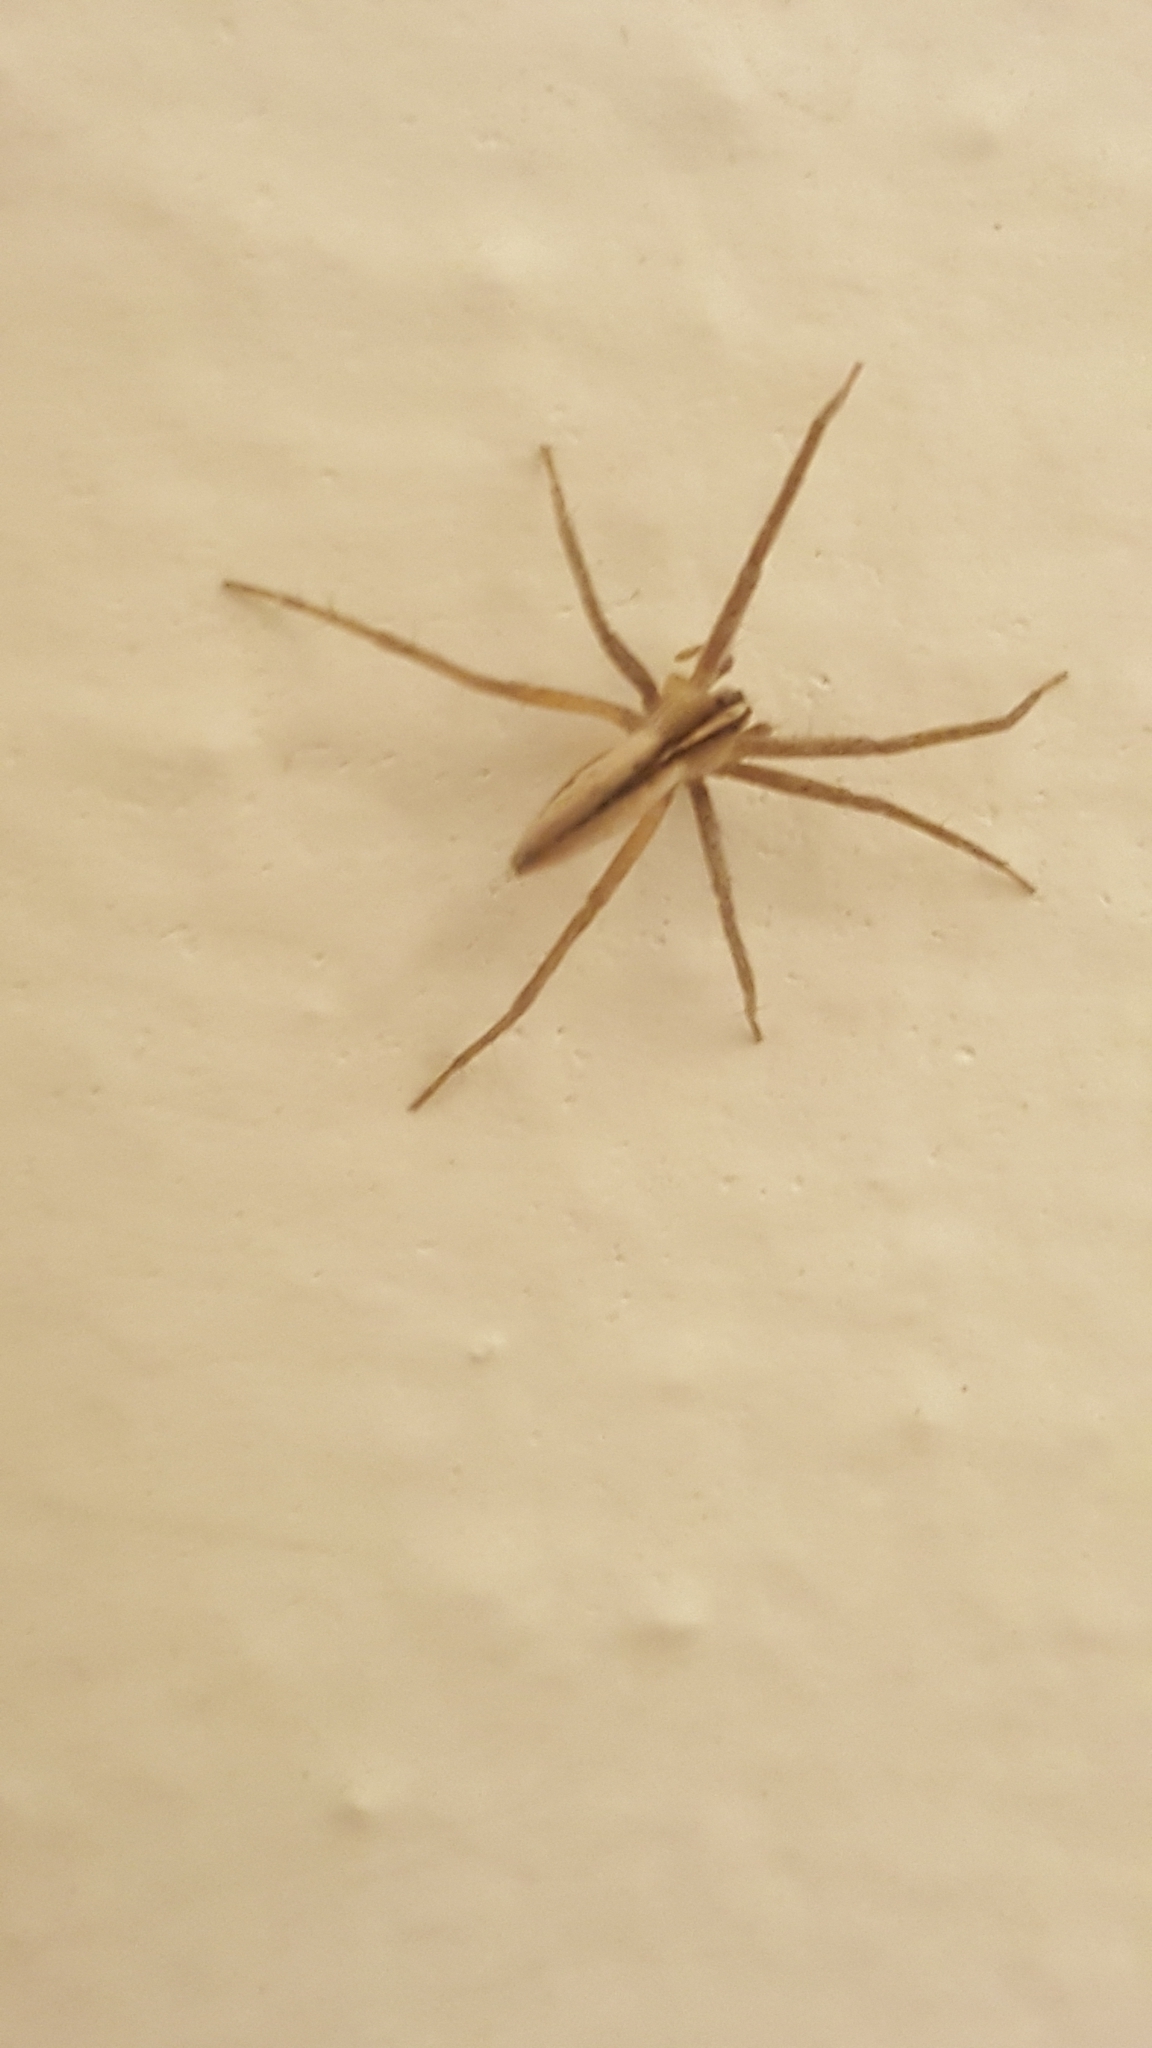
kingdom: Animalia
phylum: Arthropoda
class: Arachnida
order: Araneae
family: Pisauridae
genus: Pisaurina
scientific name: Pisaurina dubia
